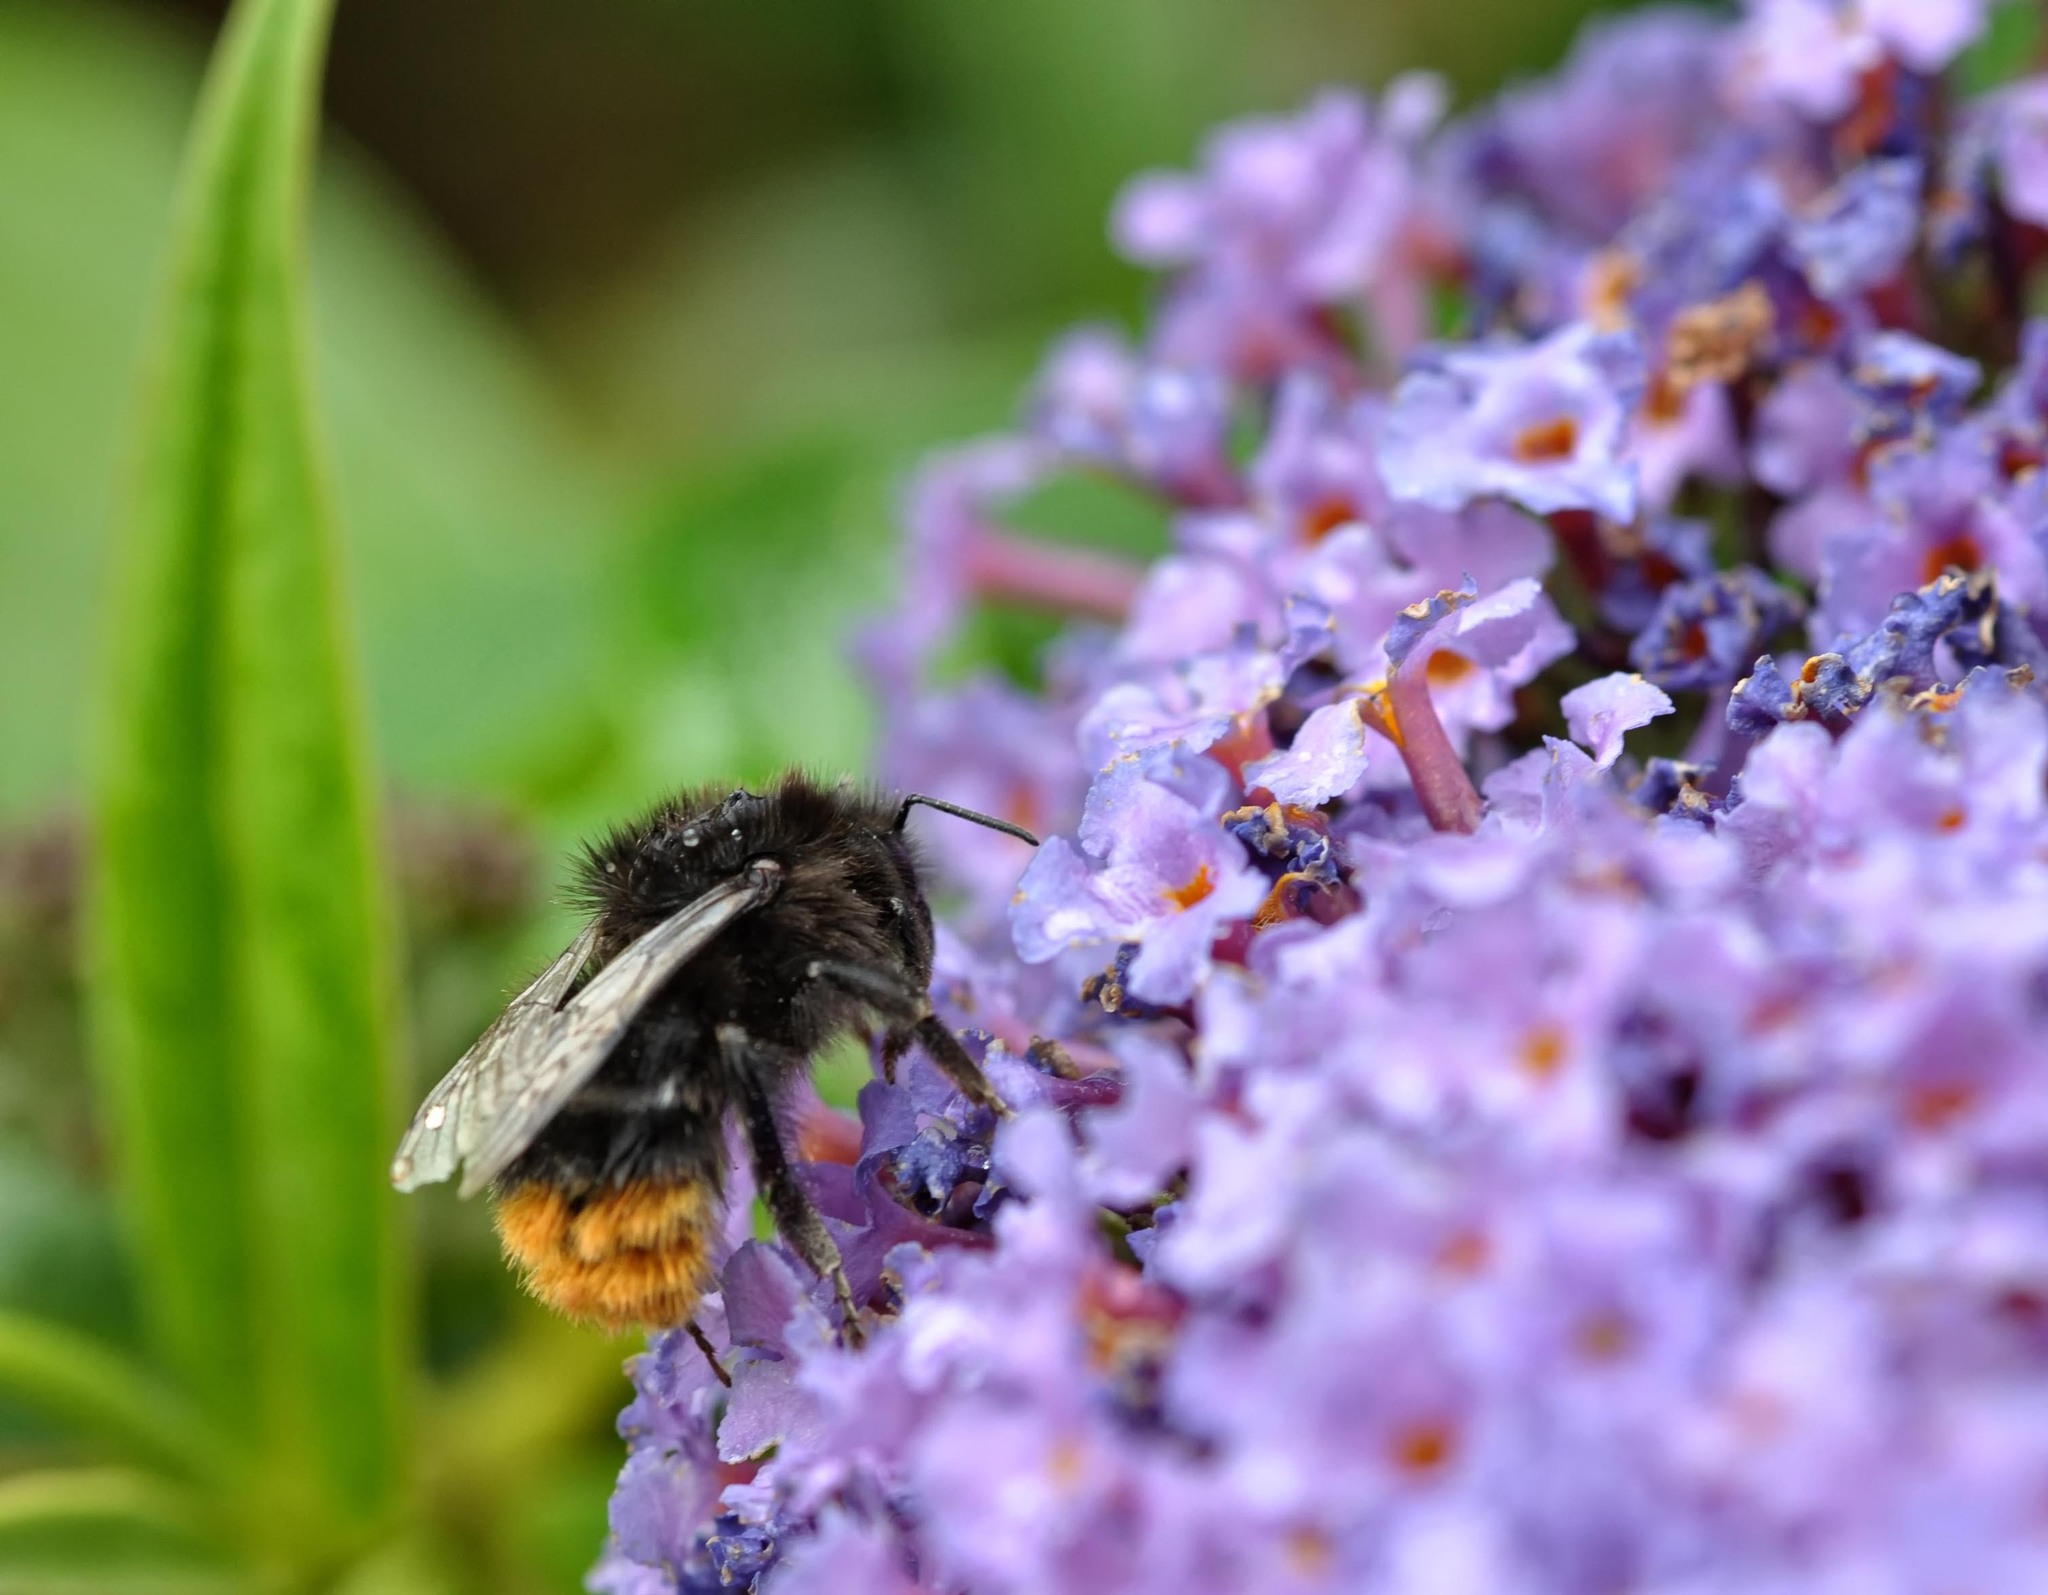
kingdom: Animalia
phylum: Arthropoda
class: Insecta
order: Hymenoptera
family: Apidae
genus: Bombus
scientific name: Bombus lapidarius
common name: Large red-tailed humble-bee
